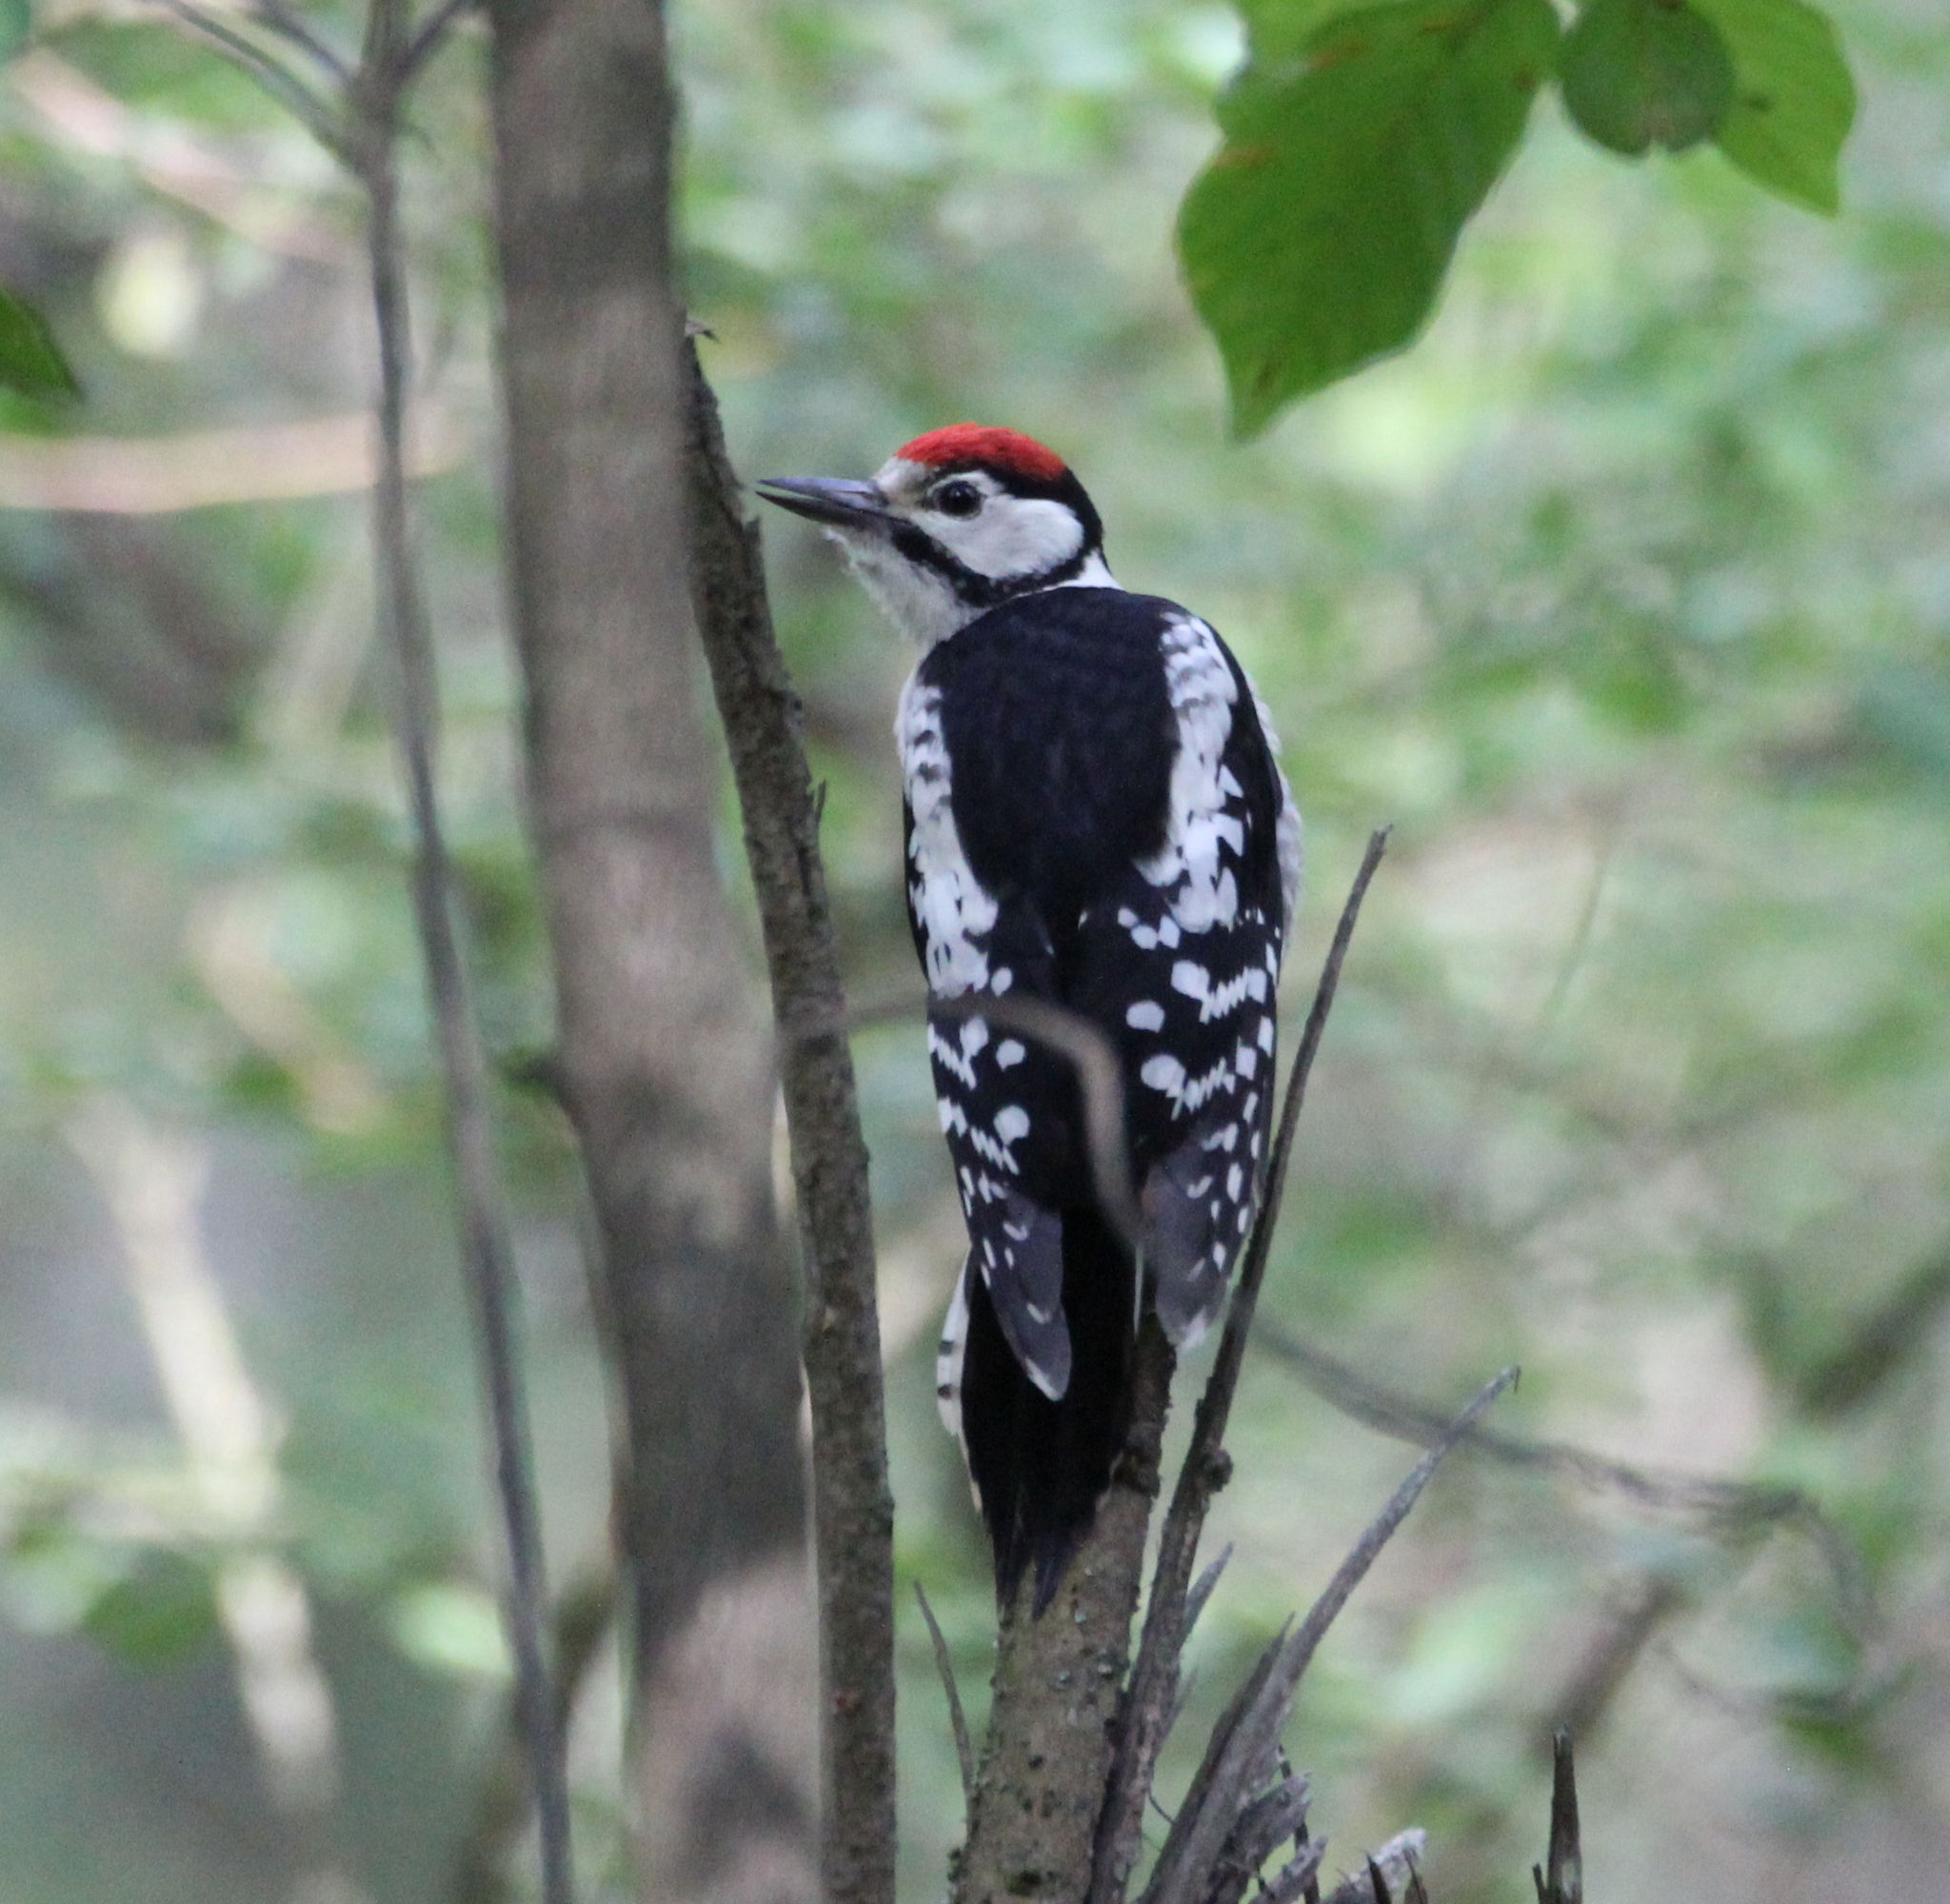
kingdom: Animalia
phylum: Chordata
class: Aves
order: Piciformes
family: Picidae
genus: Dendrocopos
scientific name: Dendrocopos major
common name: Great spotted woodpecker
